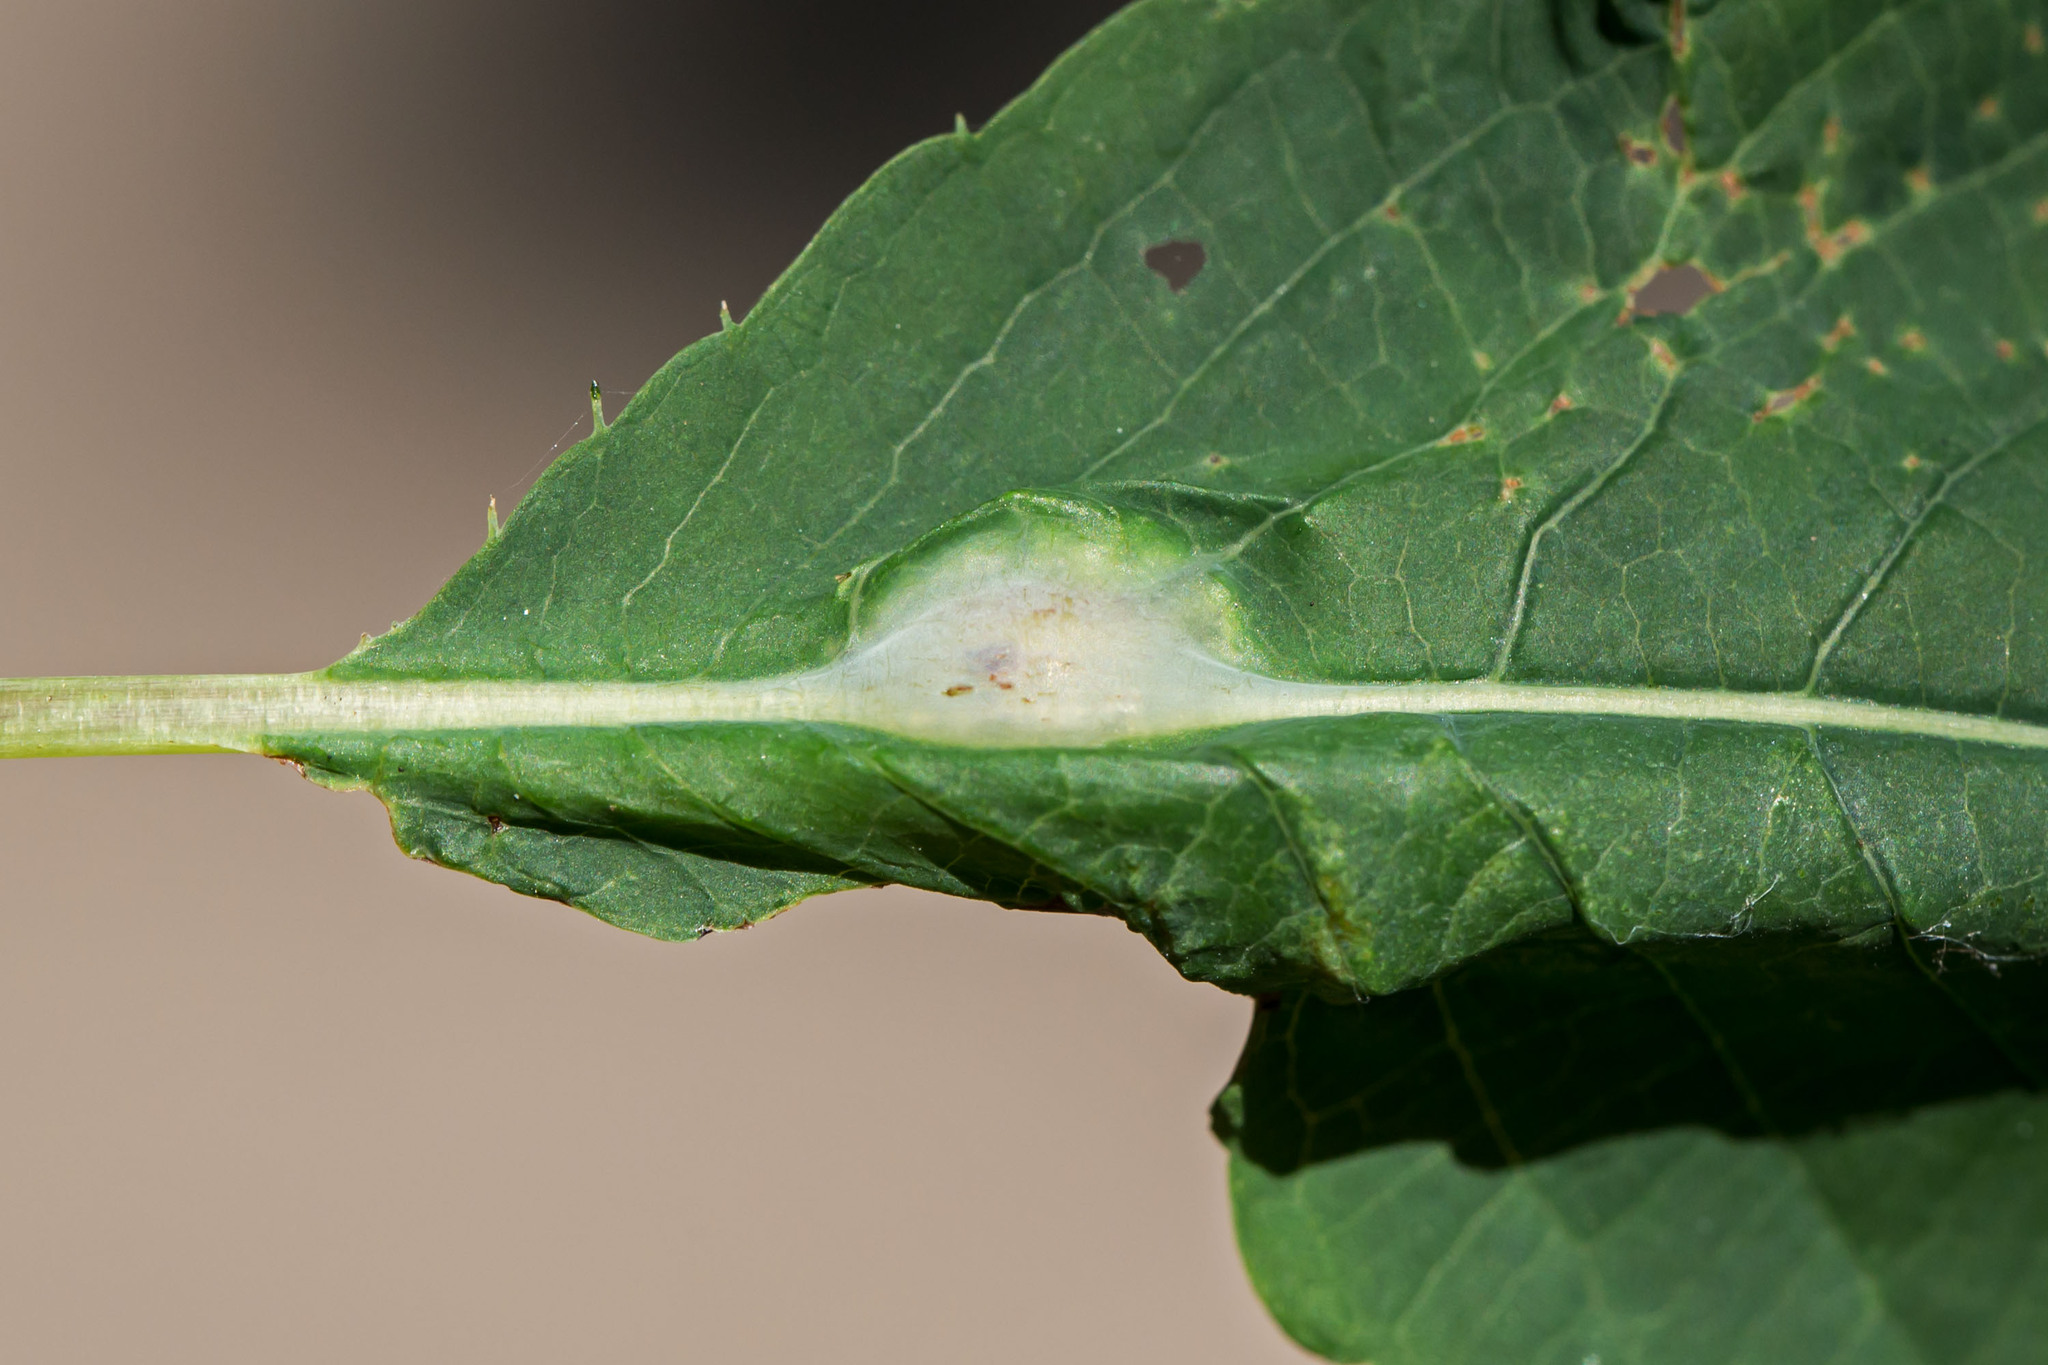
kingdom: Animalia
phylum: Arthropoda
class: Insecta
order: Diptera
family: Cecidomyiidae
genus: Neolasioptera
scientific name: Neolasioptera impatientifolia
